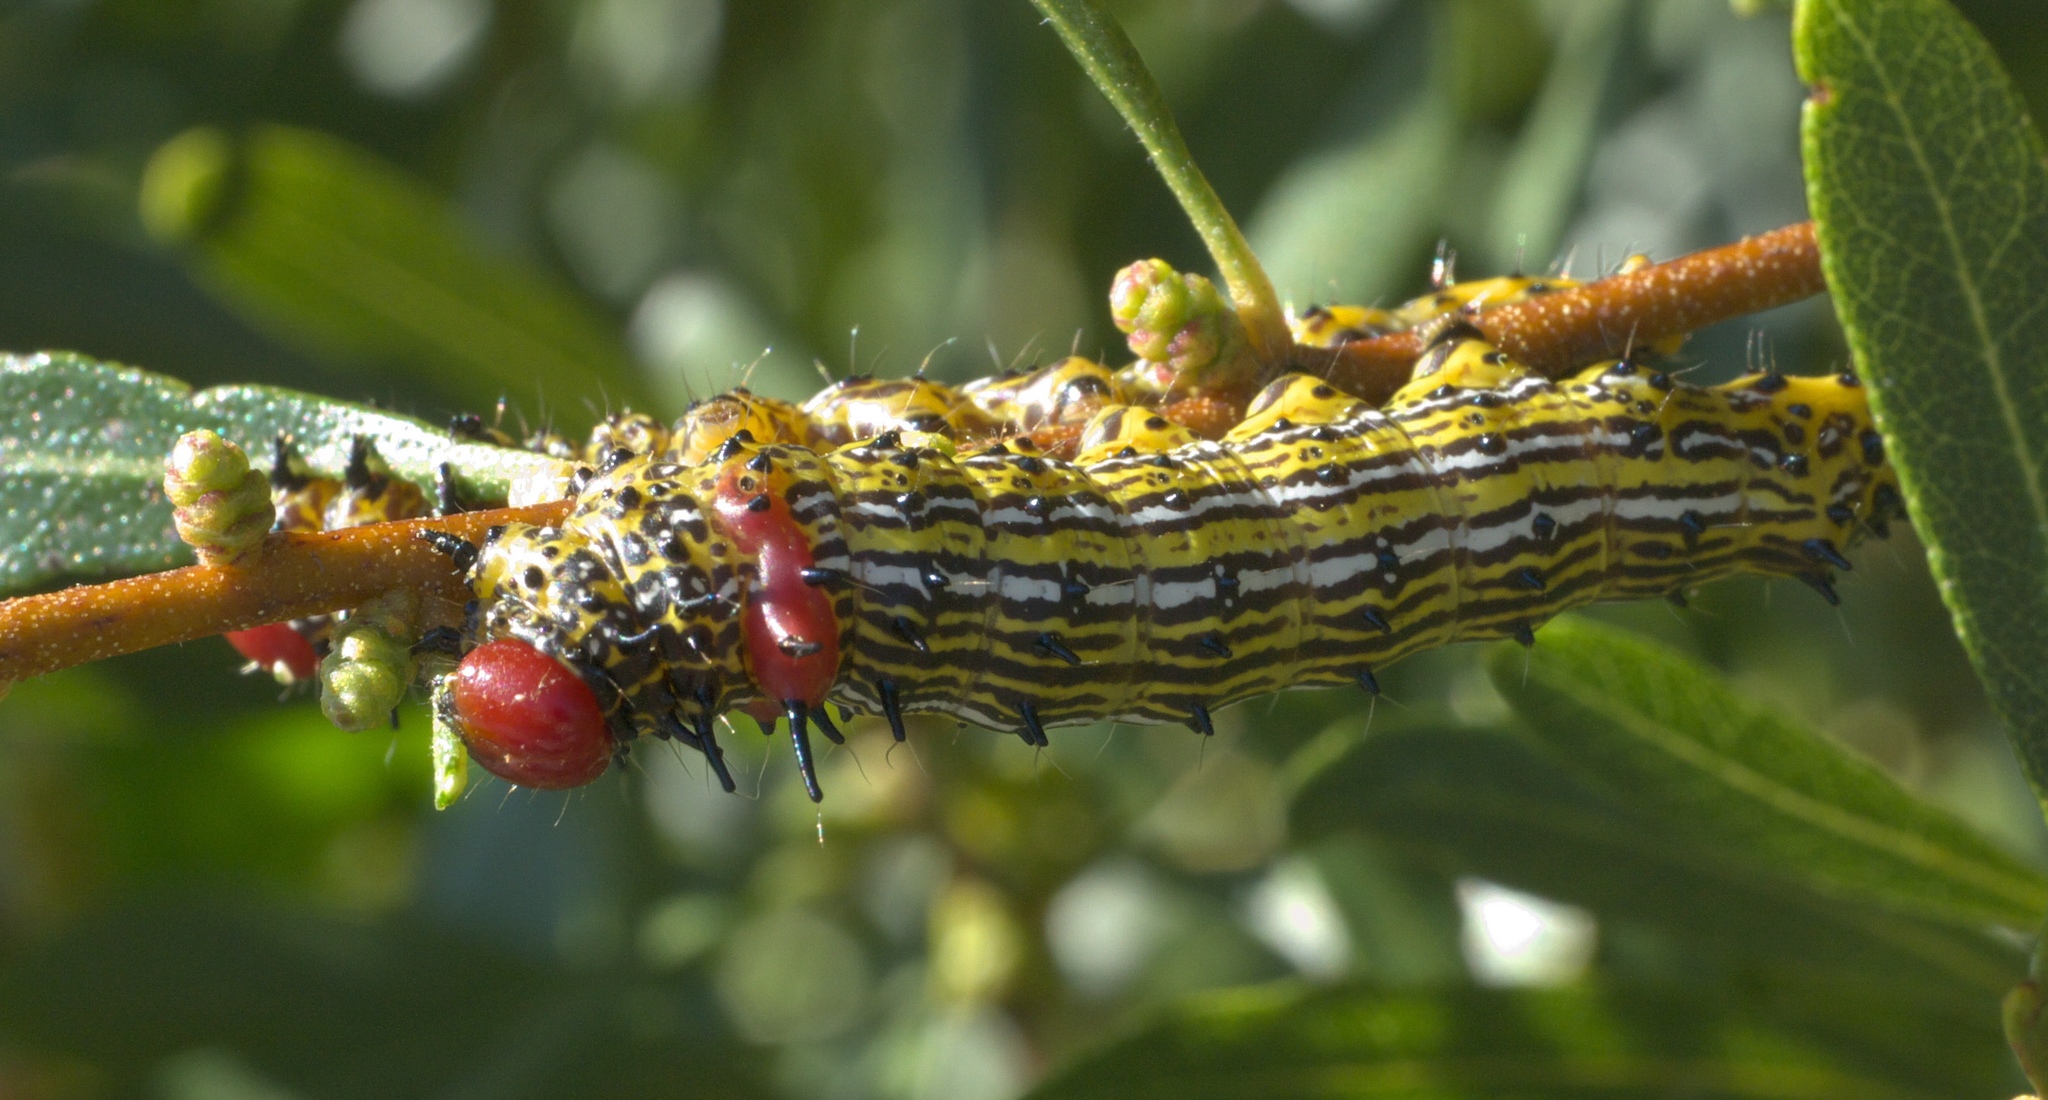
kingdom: Animalia
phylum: Arthropoda
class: Insecta
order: Lepidoptera
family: Notodontidae
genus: Schizura
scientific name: Schizura
